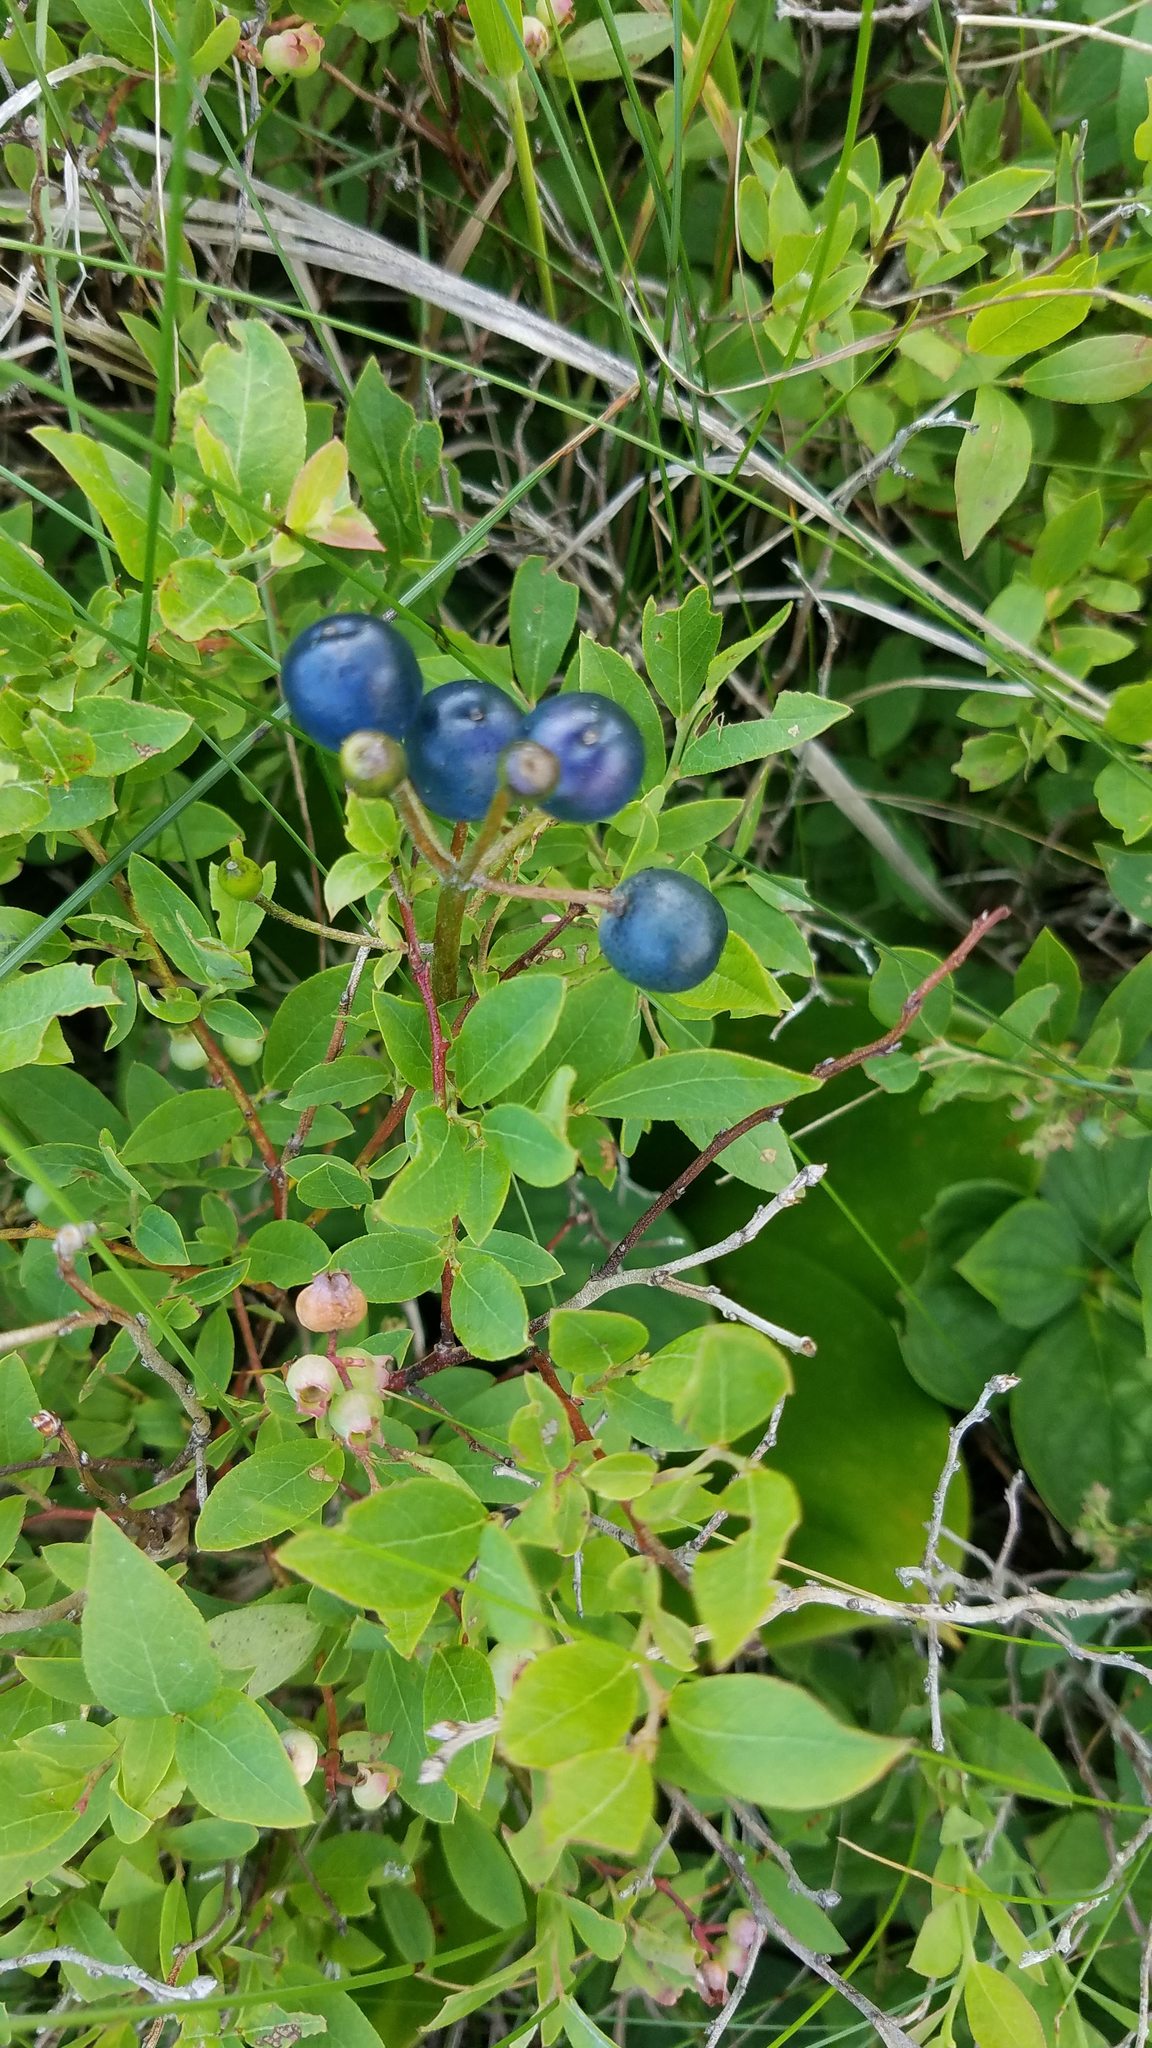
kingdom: Plantae
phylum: Tracheophyta
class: Liliopsida
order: Liliales
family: Liliaceae
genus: Clintonia
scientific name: Clintonia borealis
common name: Yellow clintonia
